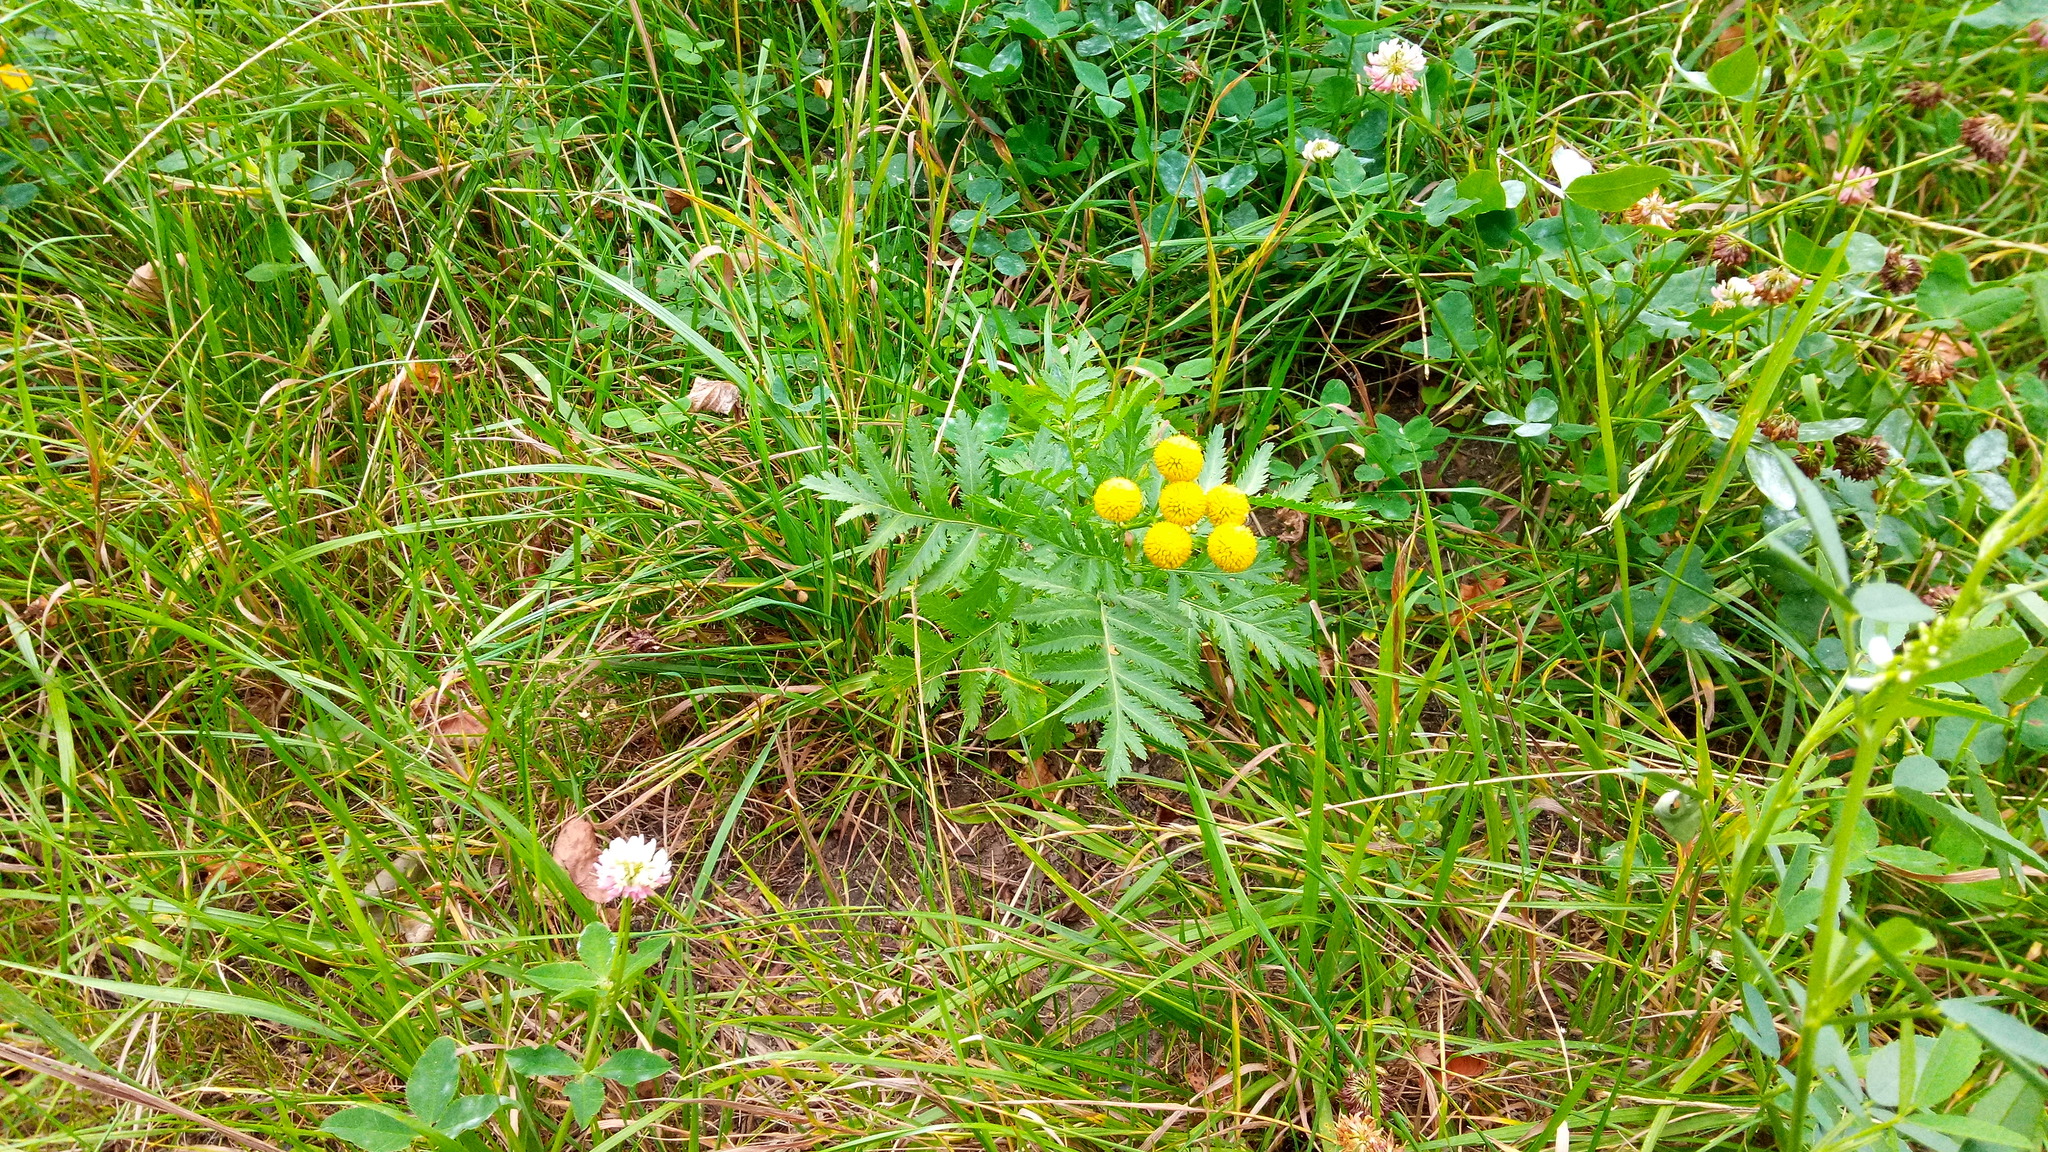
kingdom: Plantae
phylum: Tracheophyta
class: Magnoliopsida
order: Asterales
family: Asteraceae
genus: Tanacetum
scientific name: Tanacetum vulgare
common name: Common tansy
